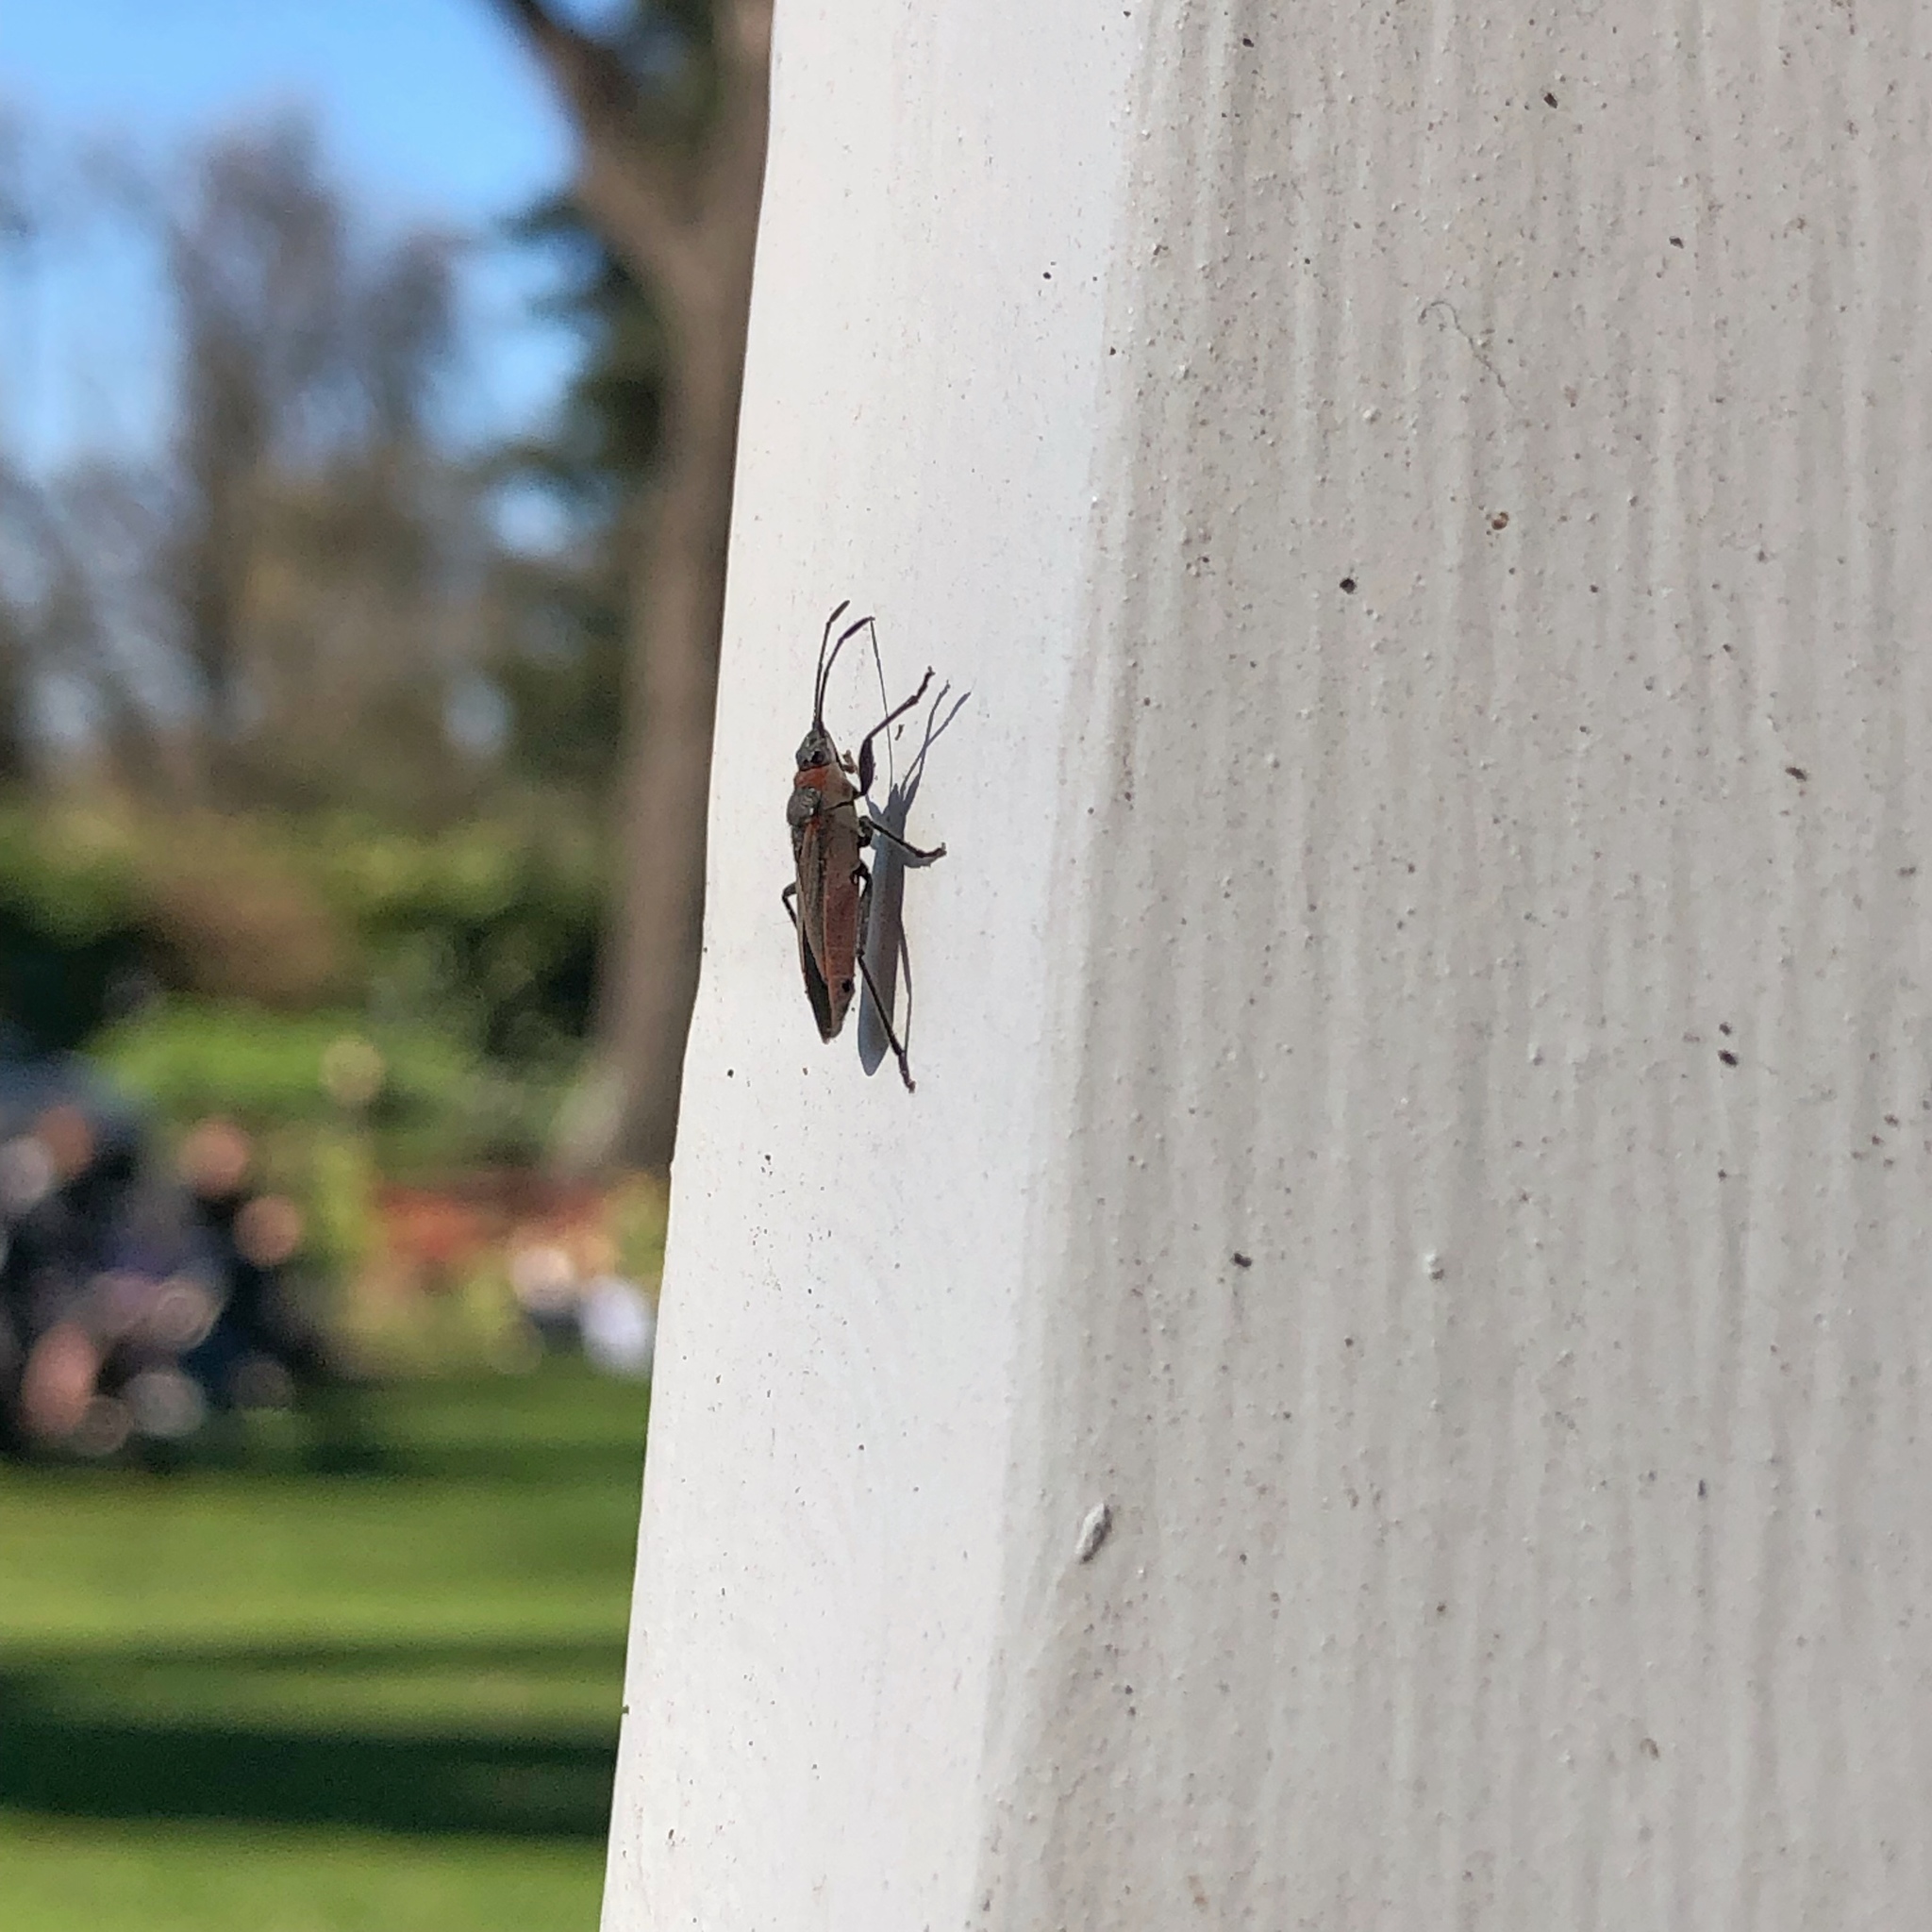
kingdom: Animalia
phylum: Arthropoda
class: Insecta
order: Hemiptera
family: Lygaeidae
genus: Arocatus
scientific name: Arocatus rusticus
